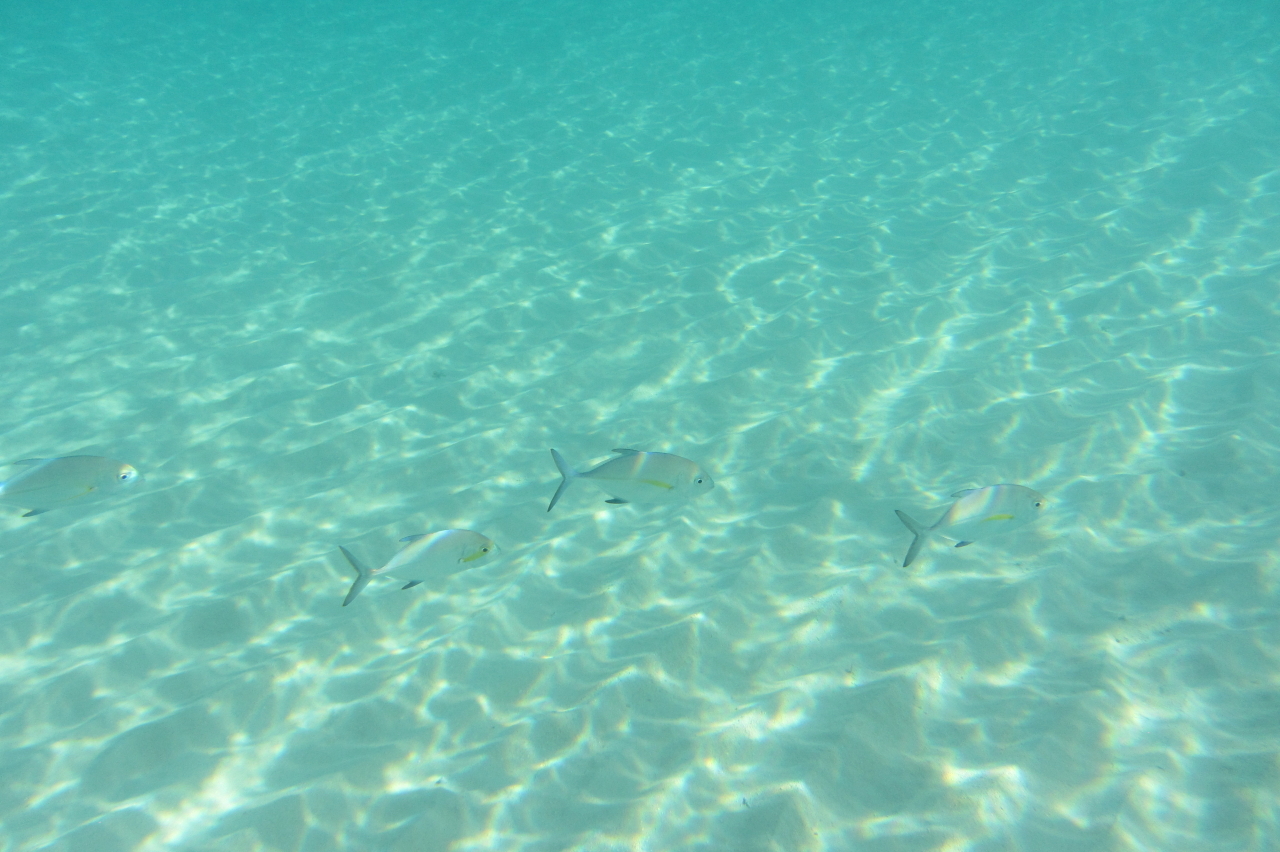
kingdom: Animalia
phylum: Chordata
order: Perciformes
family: Carangidae
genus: Carangoides
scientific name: Carangoides orthogrammus
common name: Island trevally
